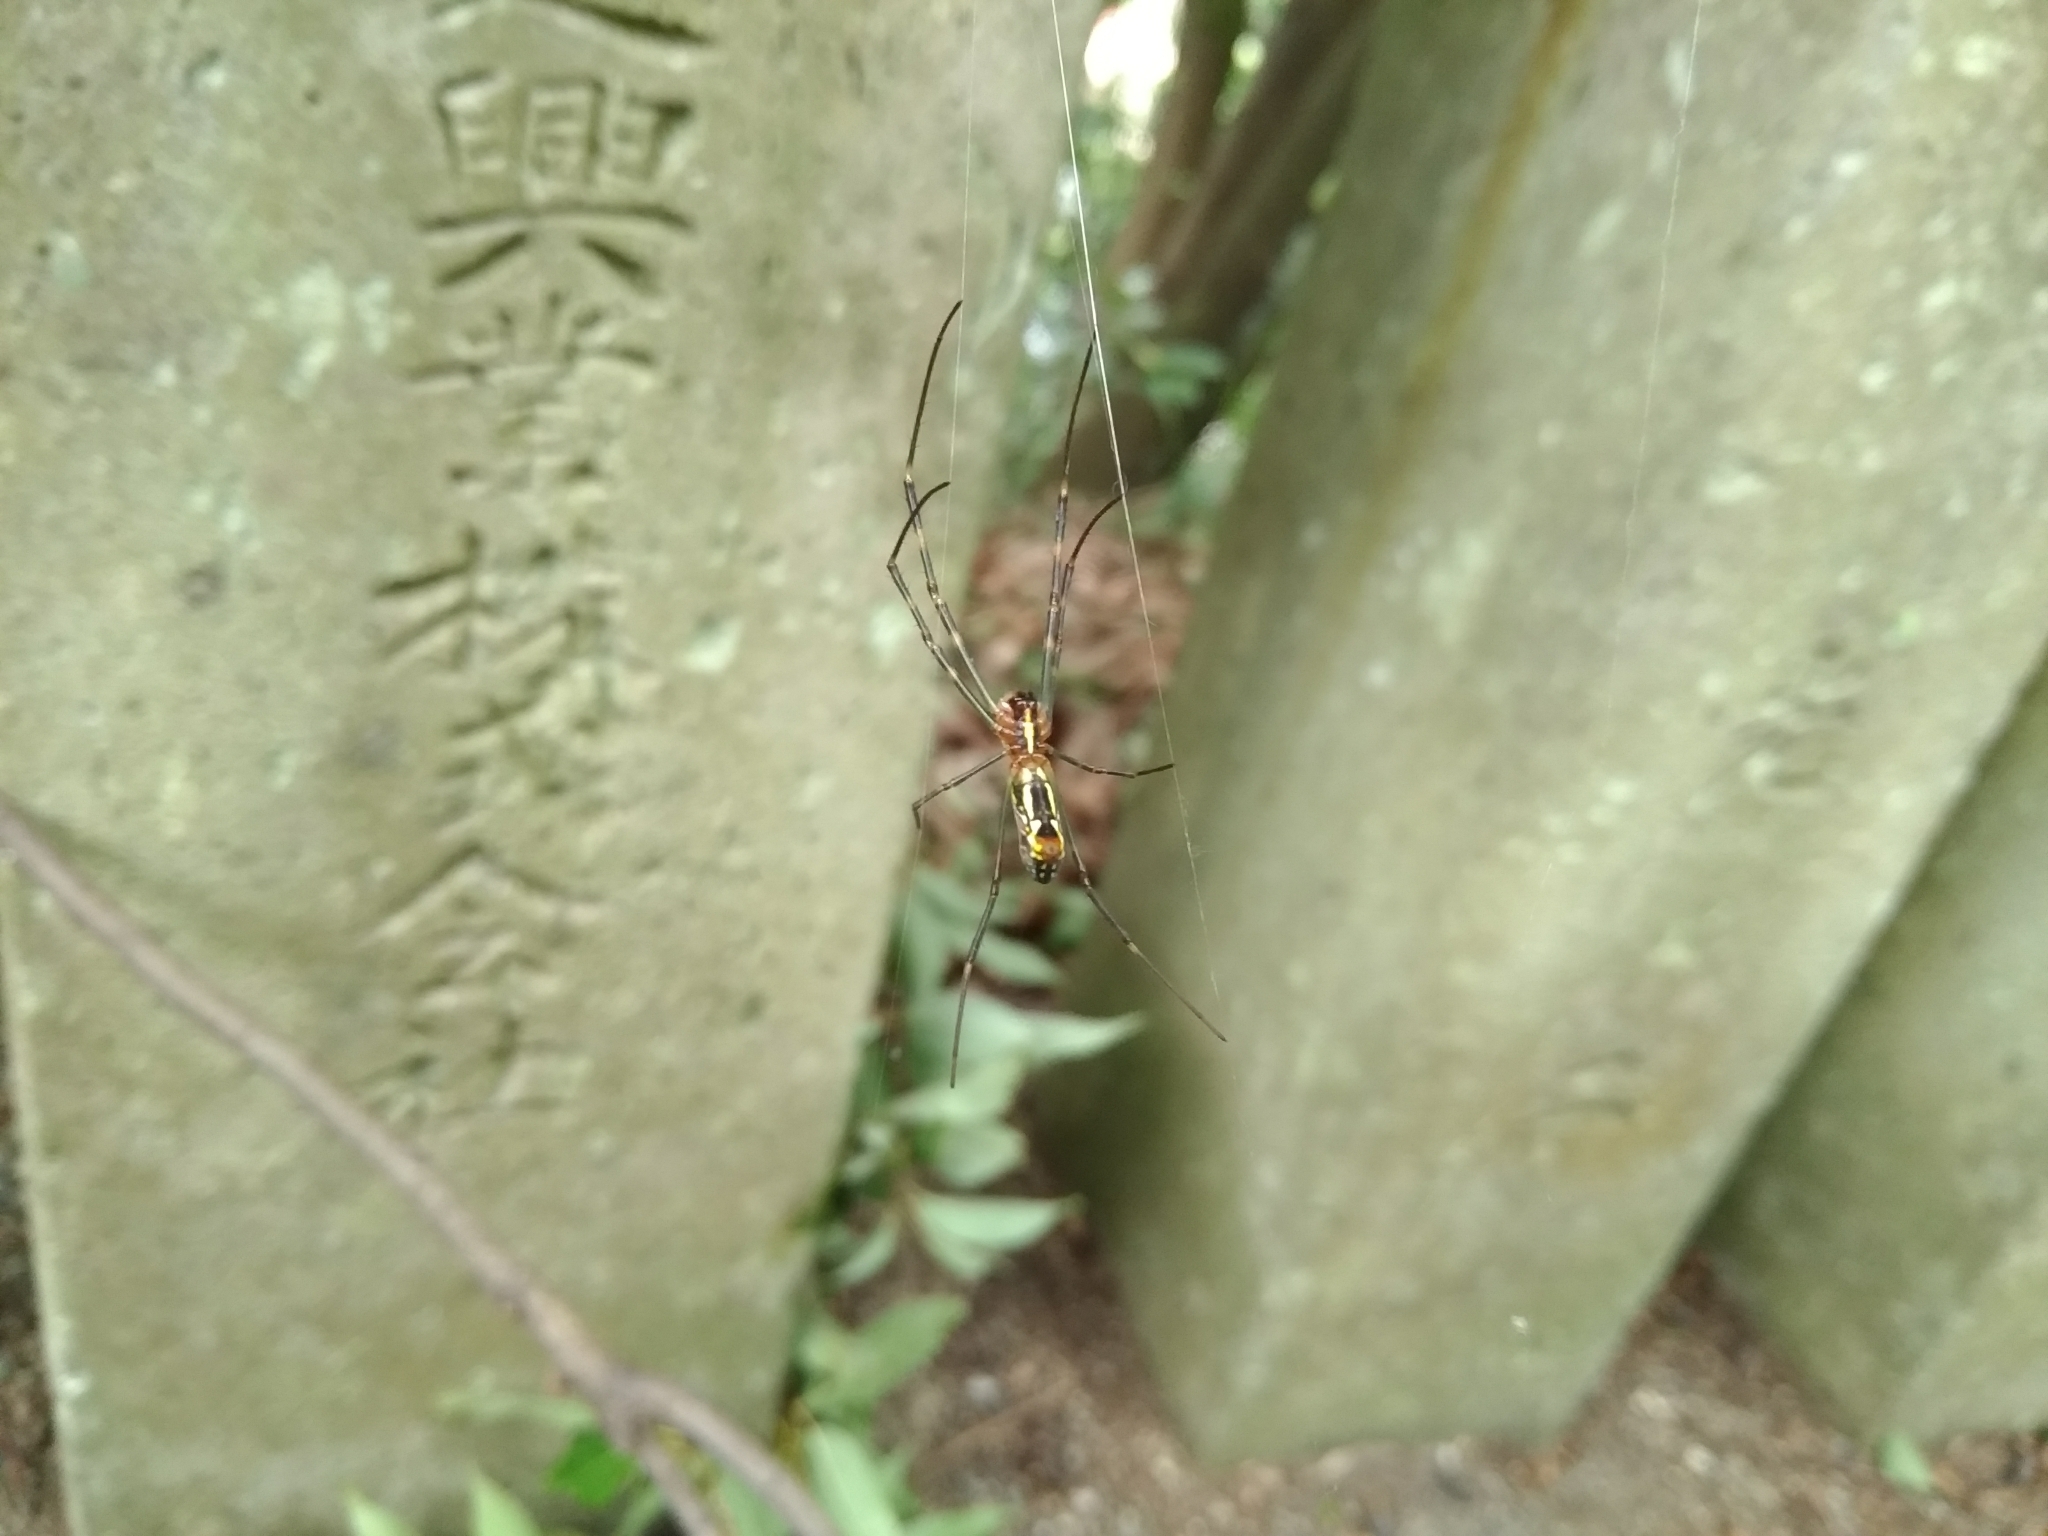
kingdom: Animalia
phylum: Arthropoda
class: Arachnida
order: Araneae
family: Araneidae
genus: Trichonephila
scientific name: Trichonephila clavata
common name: Jorō spider
